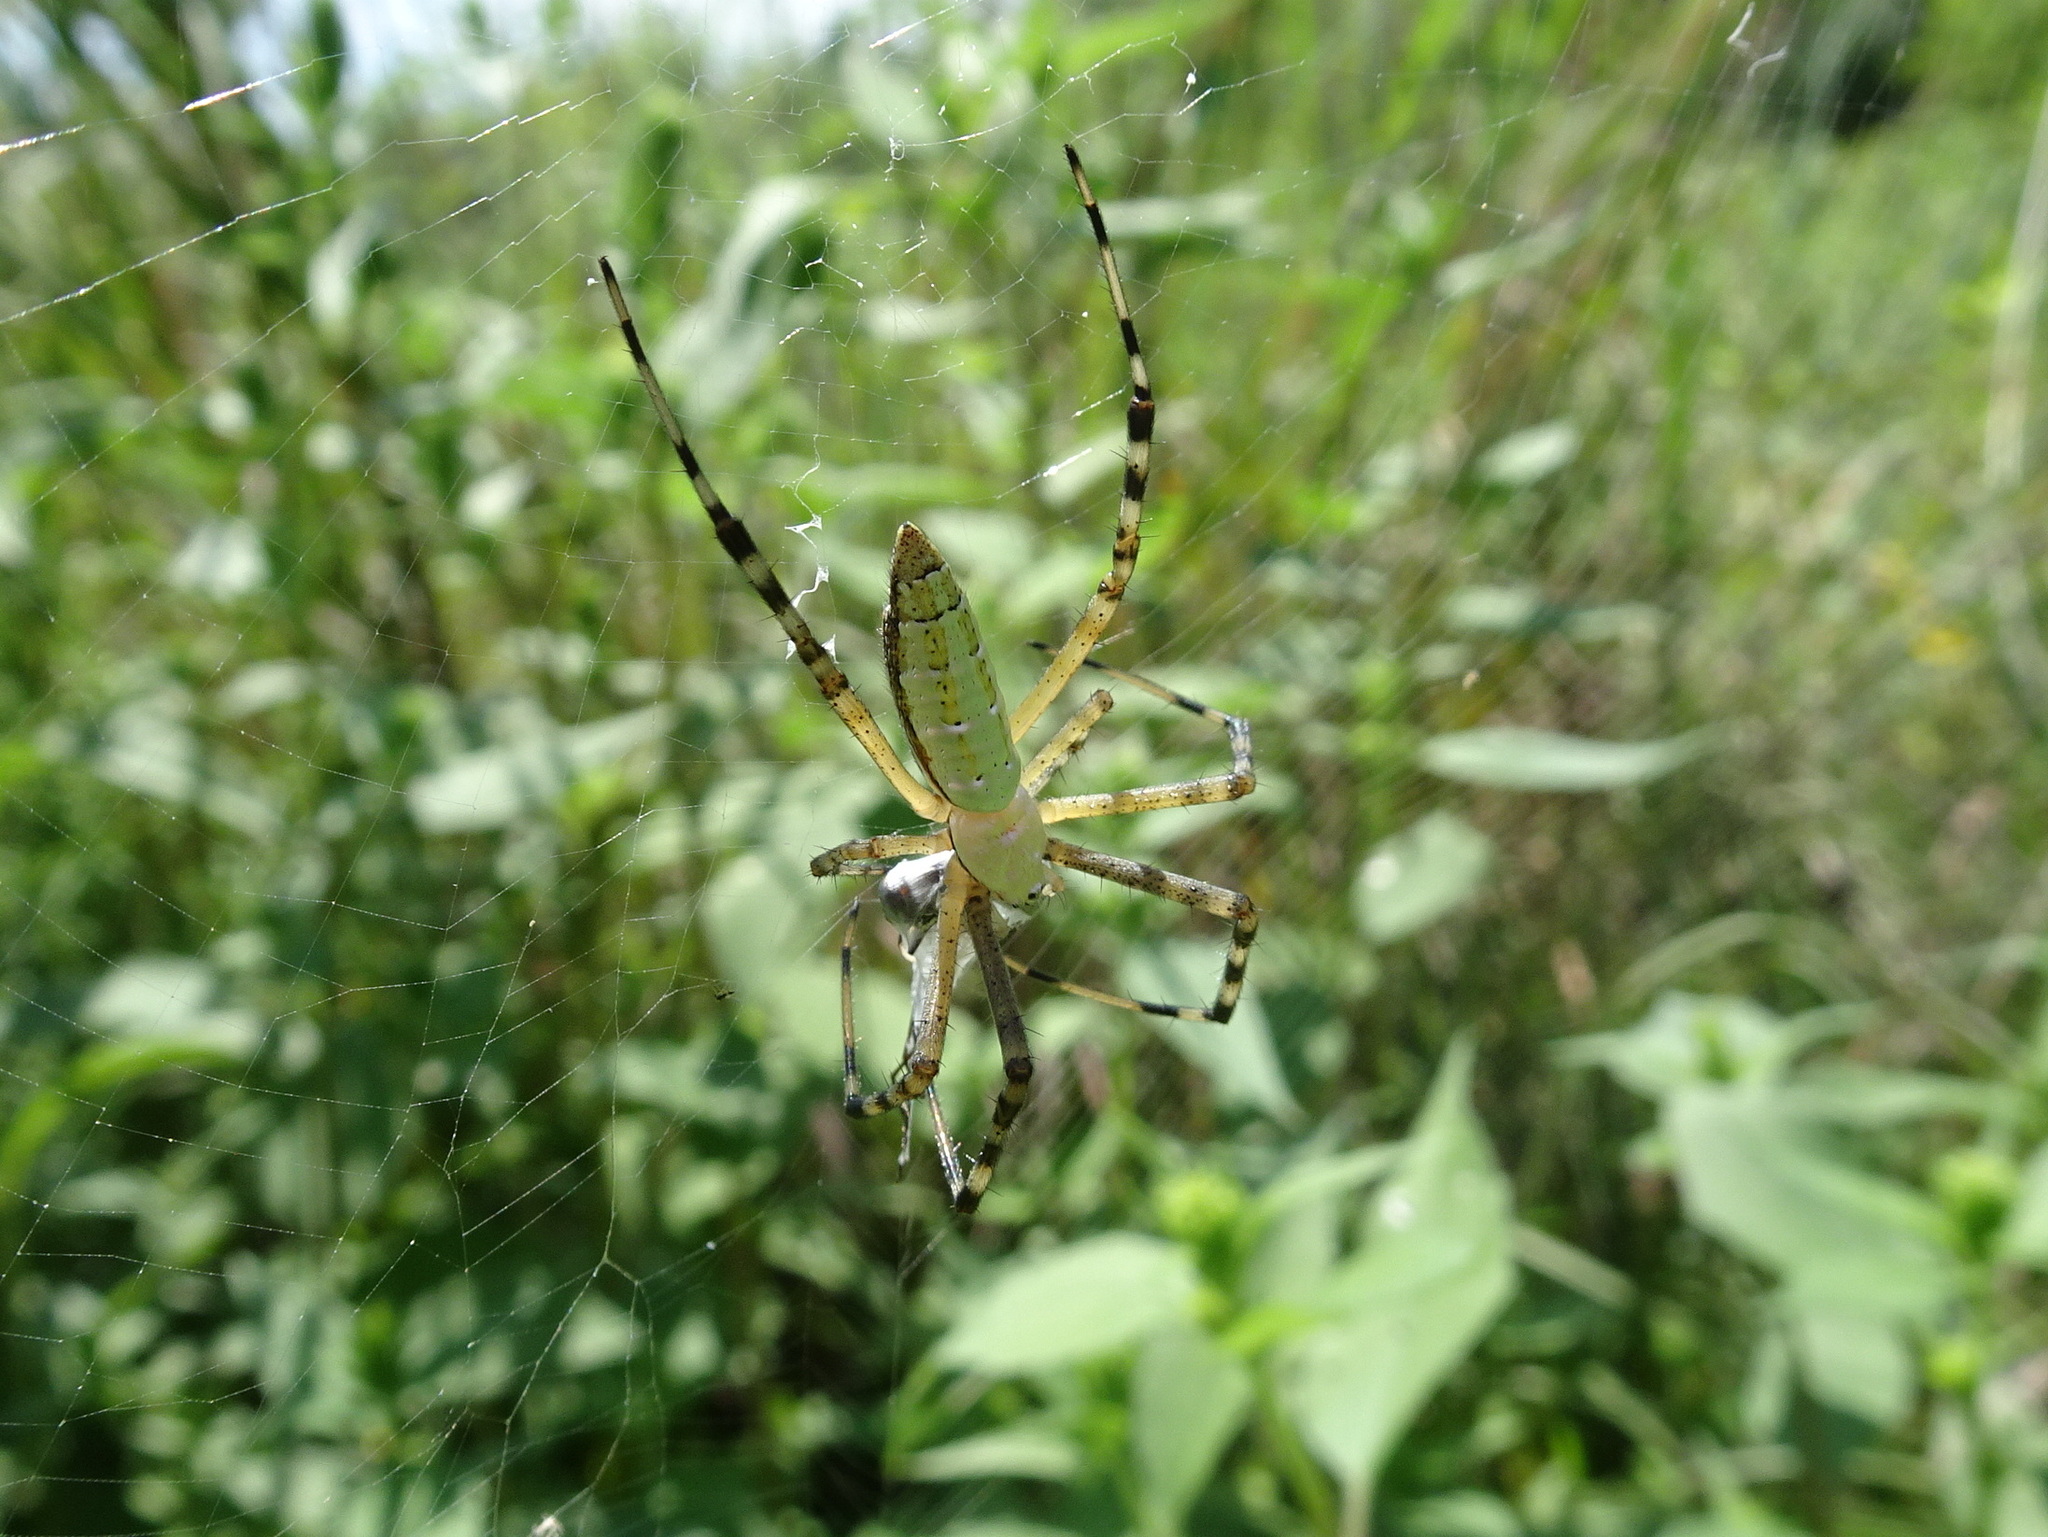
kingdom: Animalia
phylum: Arthropoda
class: Arachnida
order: Araneae
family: Araneidae
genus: Argiope
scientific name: Argiope trifasciata
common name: Banded garden spider
